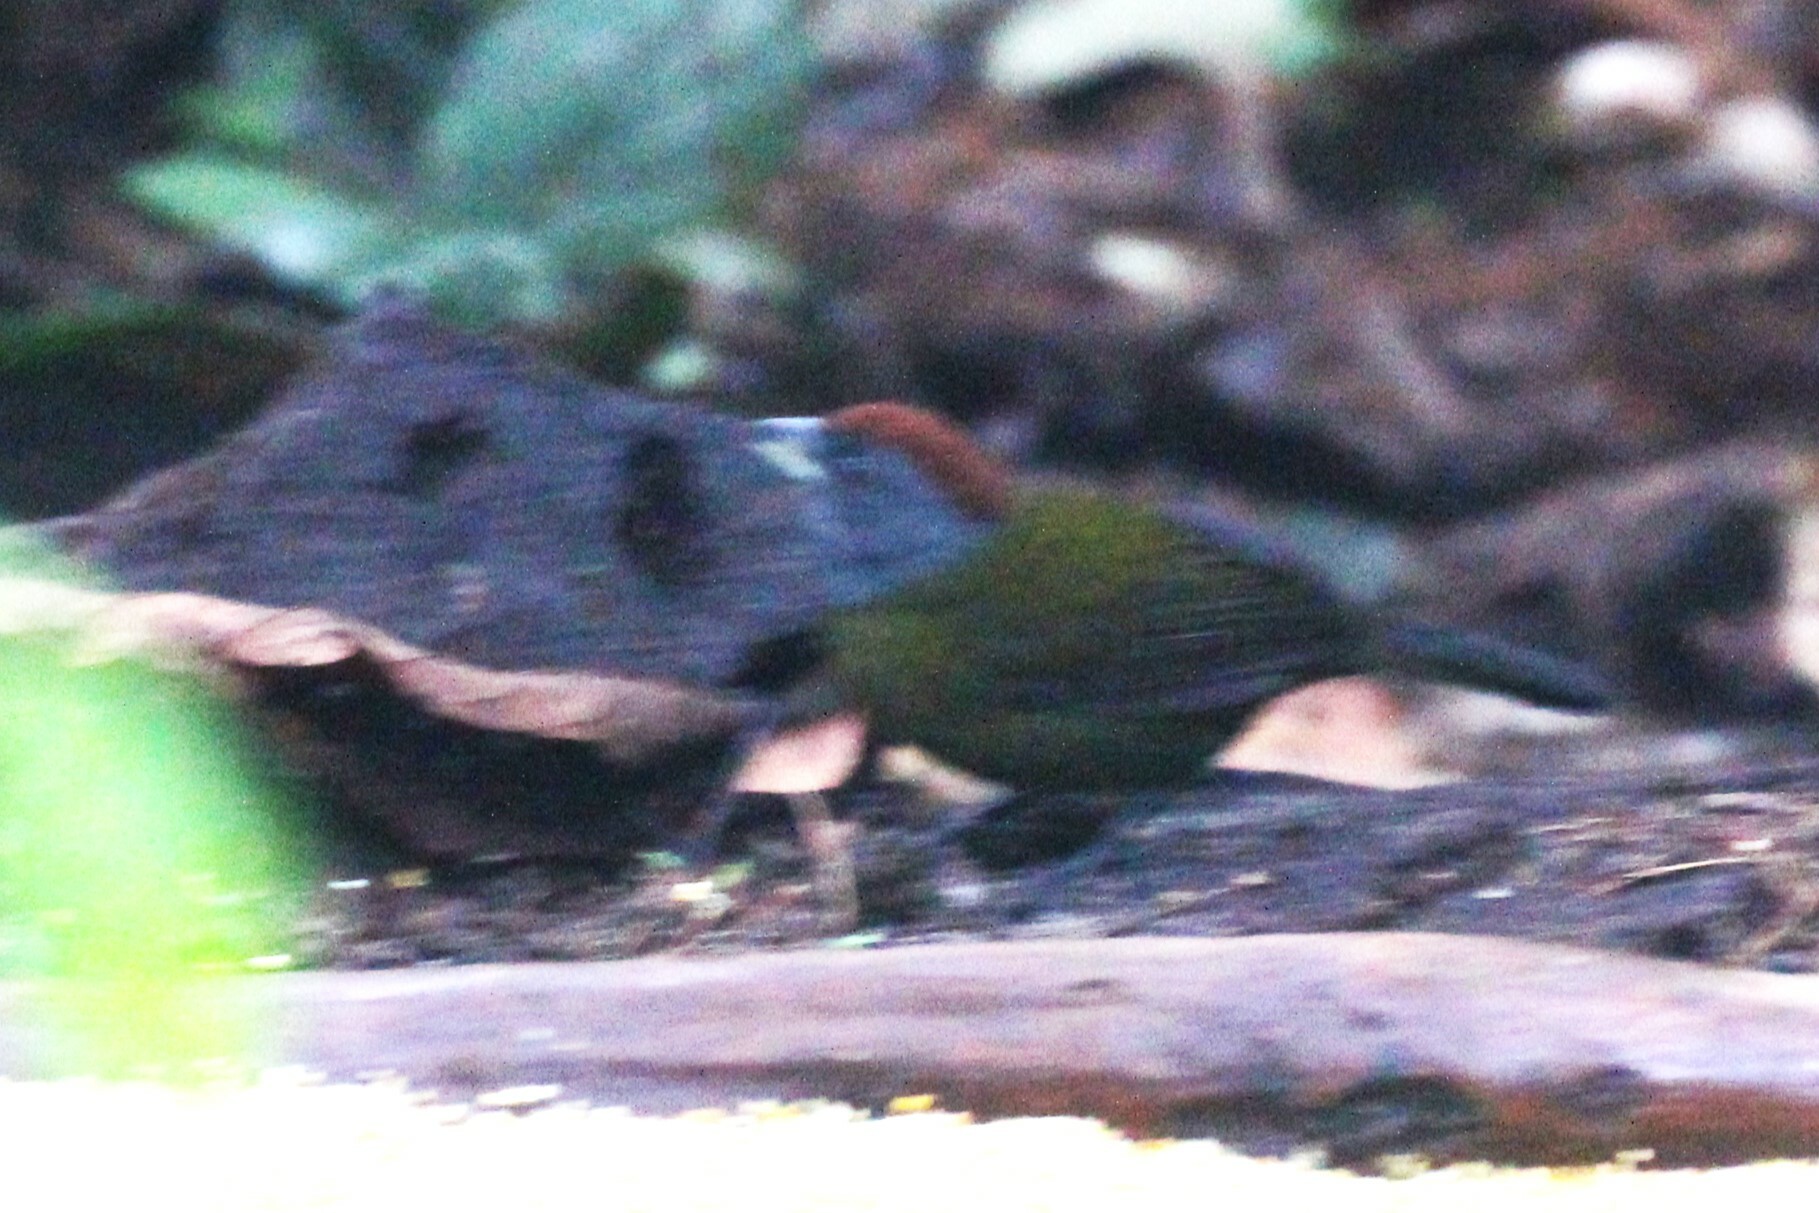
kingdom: Animalia
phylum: Chordata
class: Aves
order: Passeriformes
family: Passerellidae
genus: Arremon
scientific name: Arremon castaneiceps
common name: Olive finch
